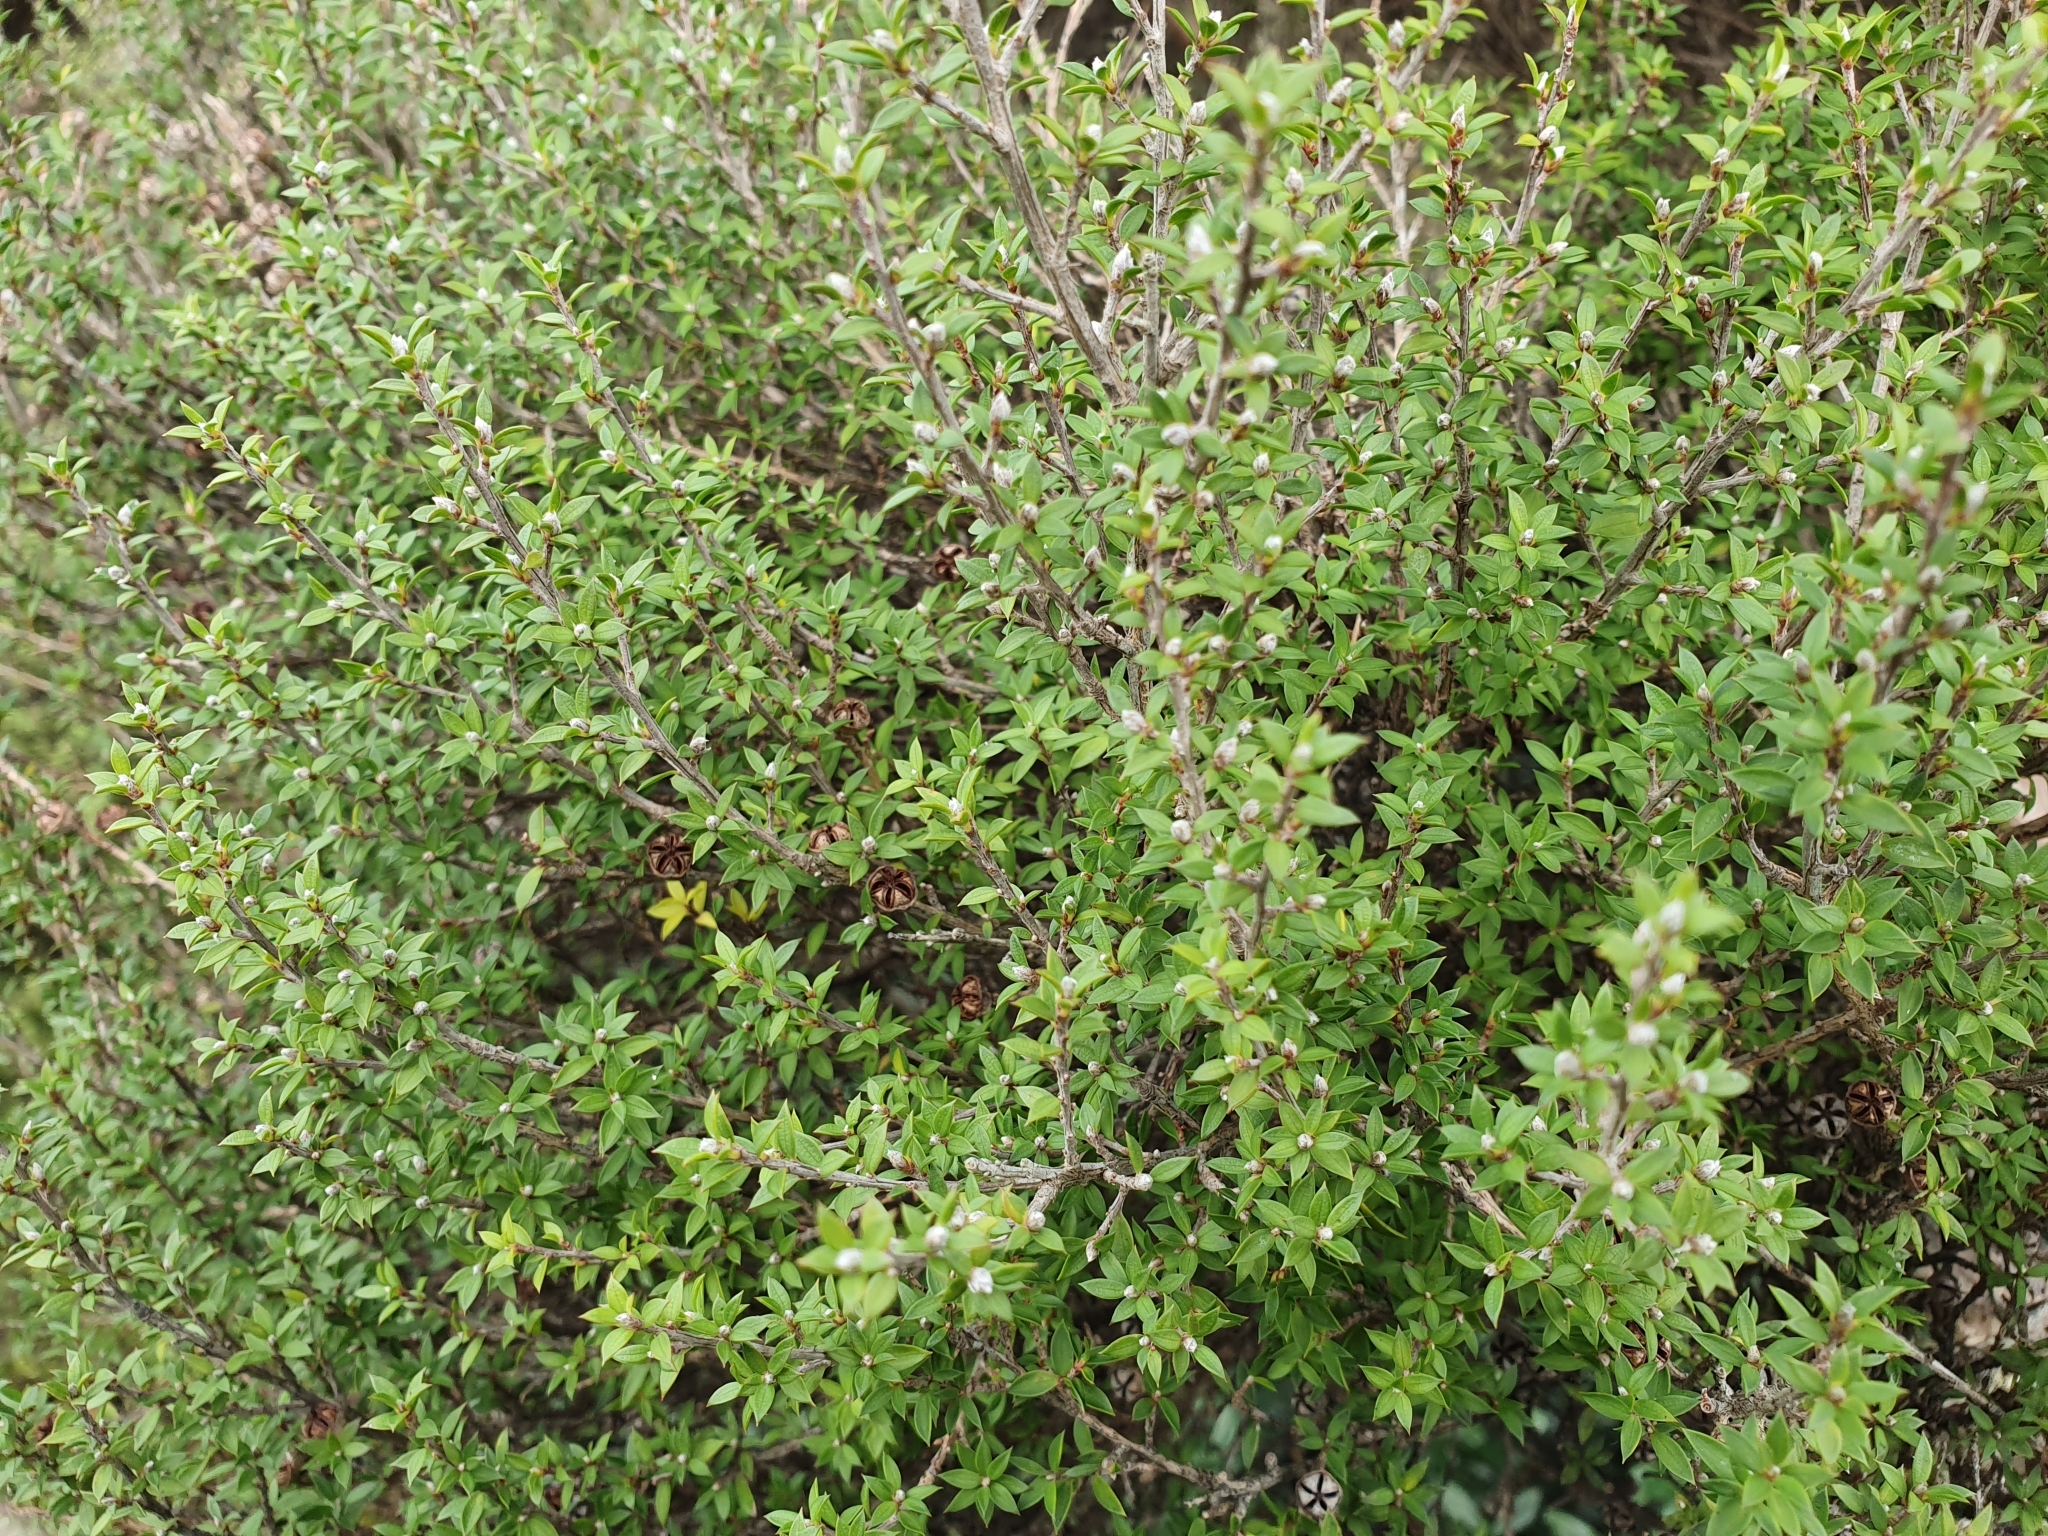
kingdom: Plantae
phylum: Tracheophyta
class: Magnoliopsida
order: Myrtales
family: Myrtaceae
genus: Leptospermum
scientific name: Leptospermum scoparium
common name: Broom tea-tree
